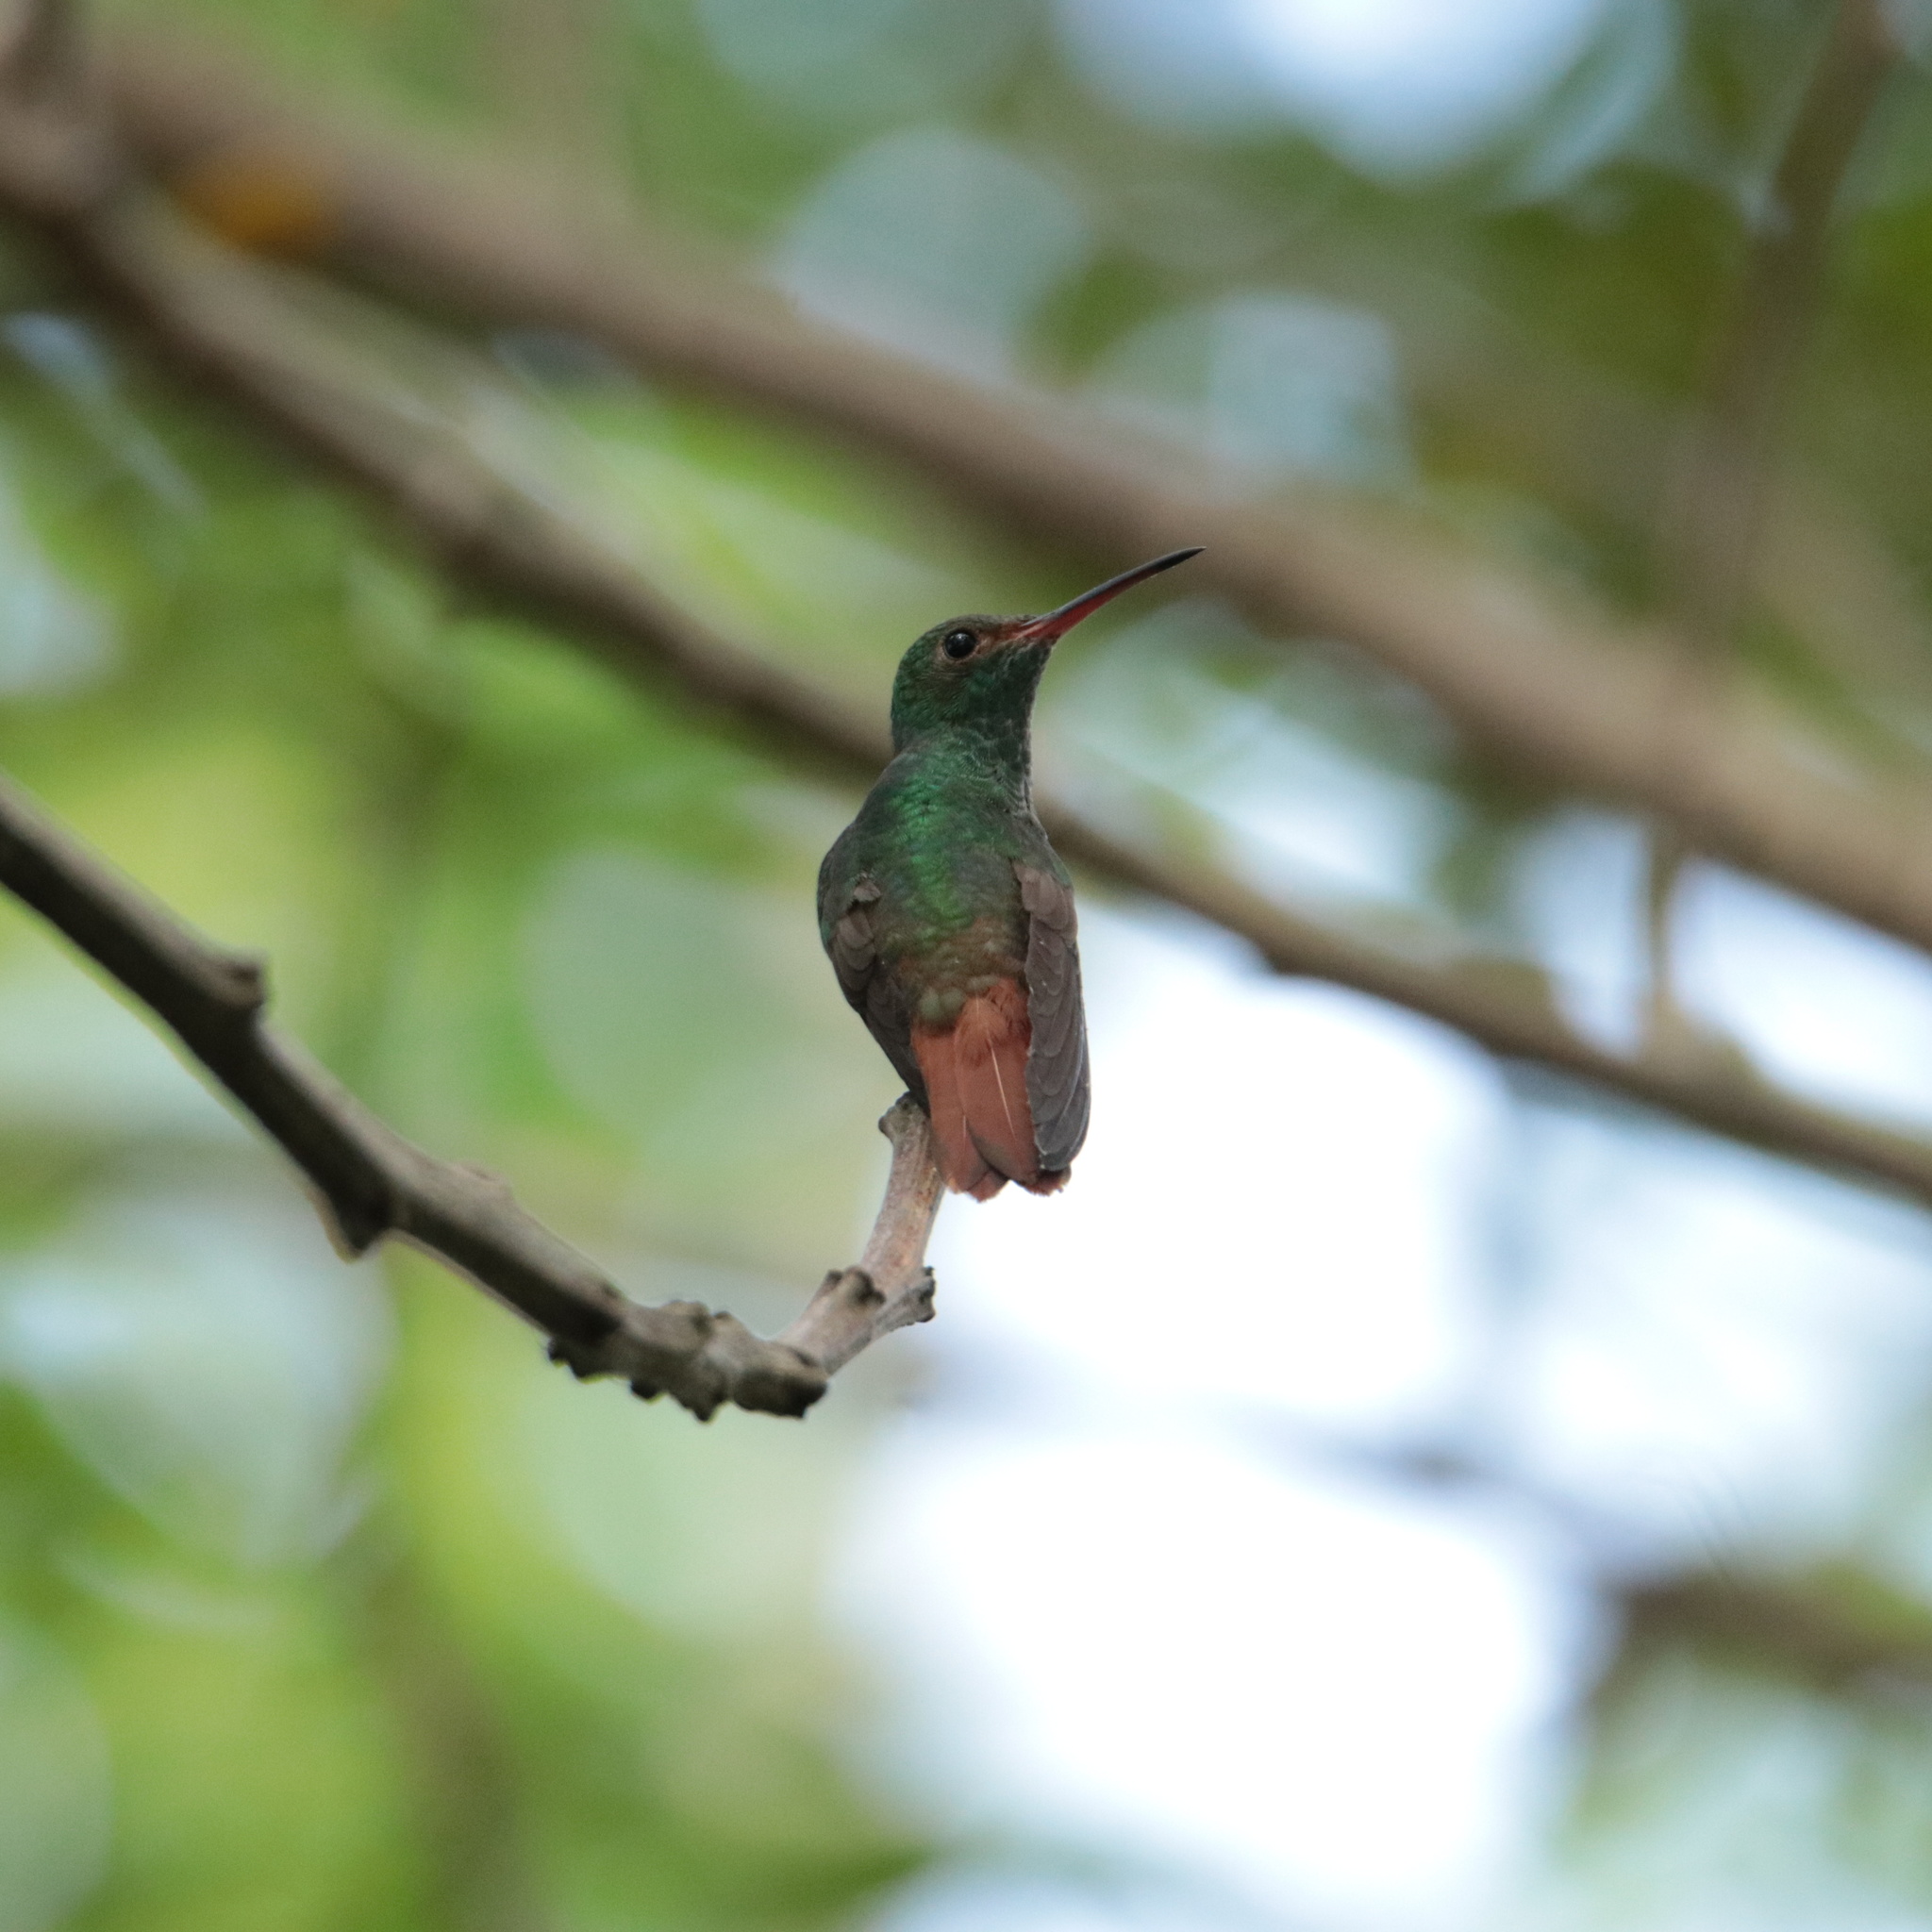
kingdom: Animalia
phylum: Chordata
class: Aves
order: Apodiformes
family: Trochilidae
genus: Amazilia
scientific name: Amazilia tzacatl
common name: Rufous-tailed hummingbird
